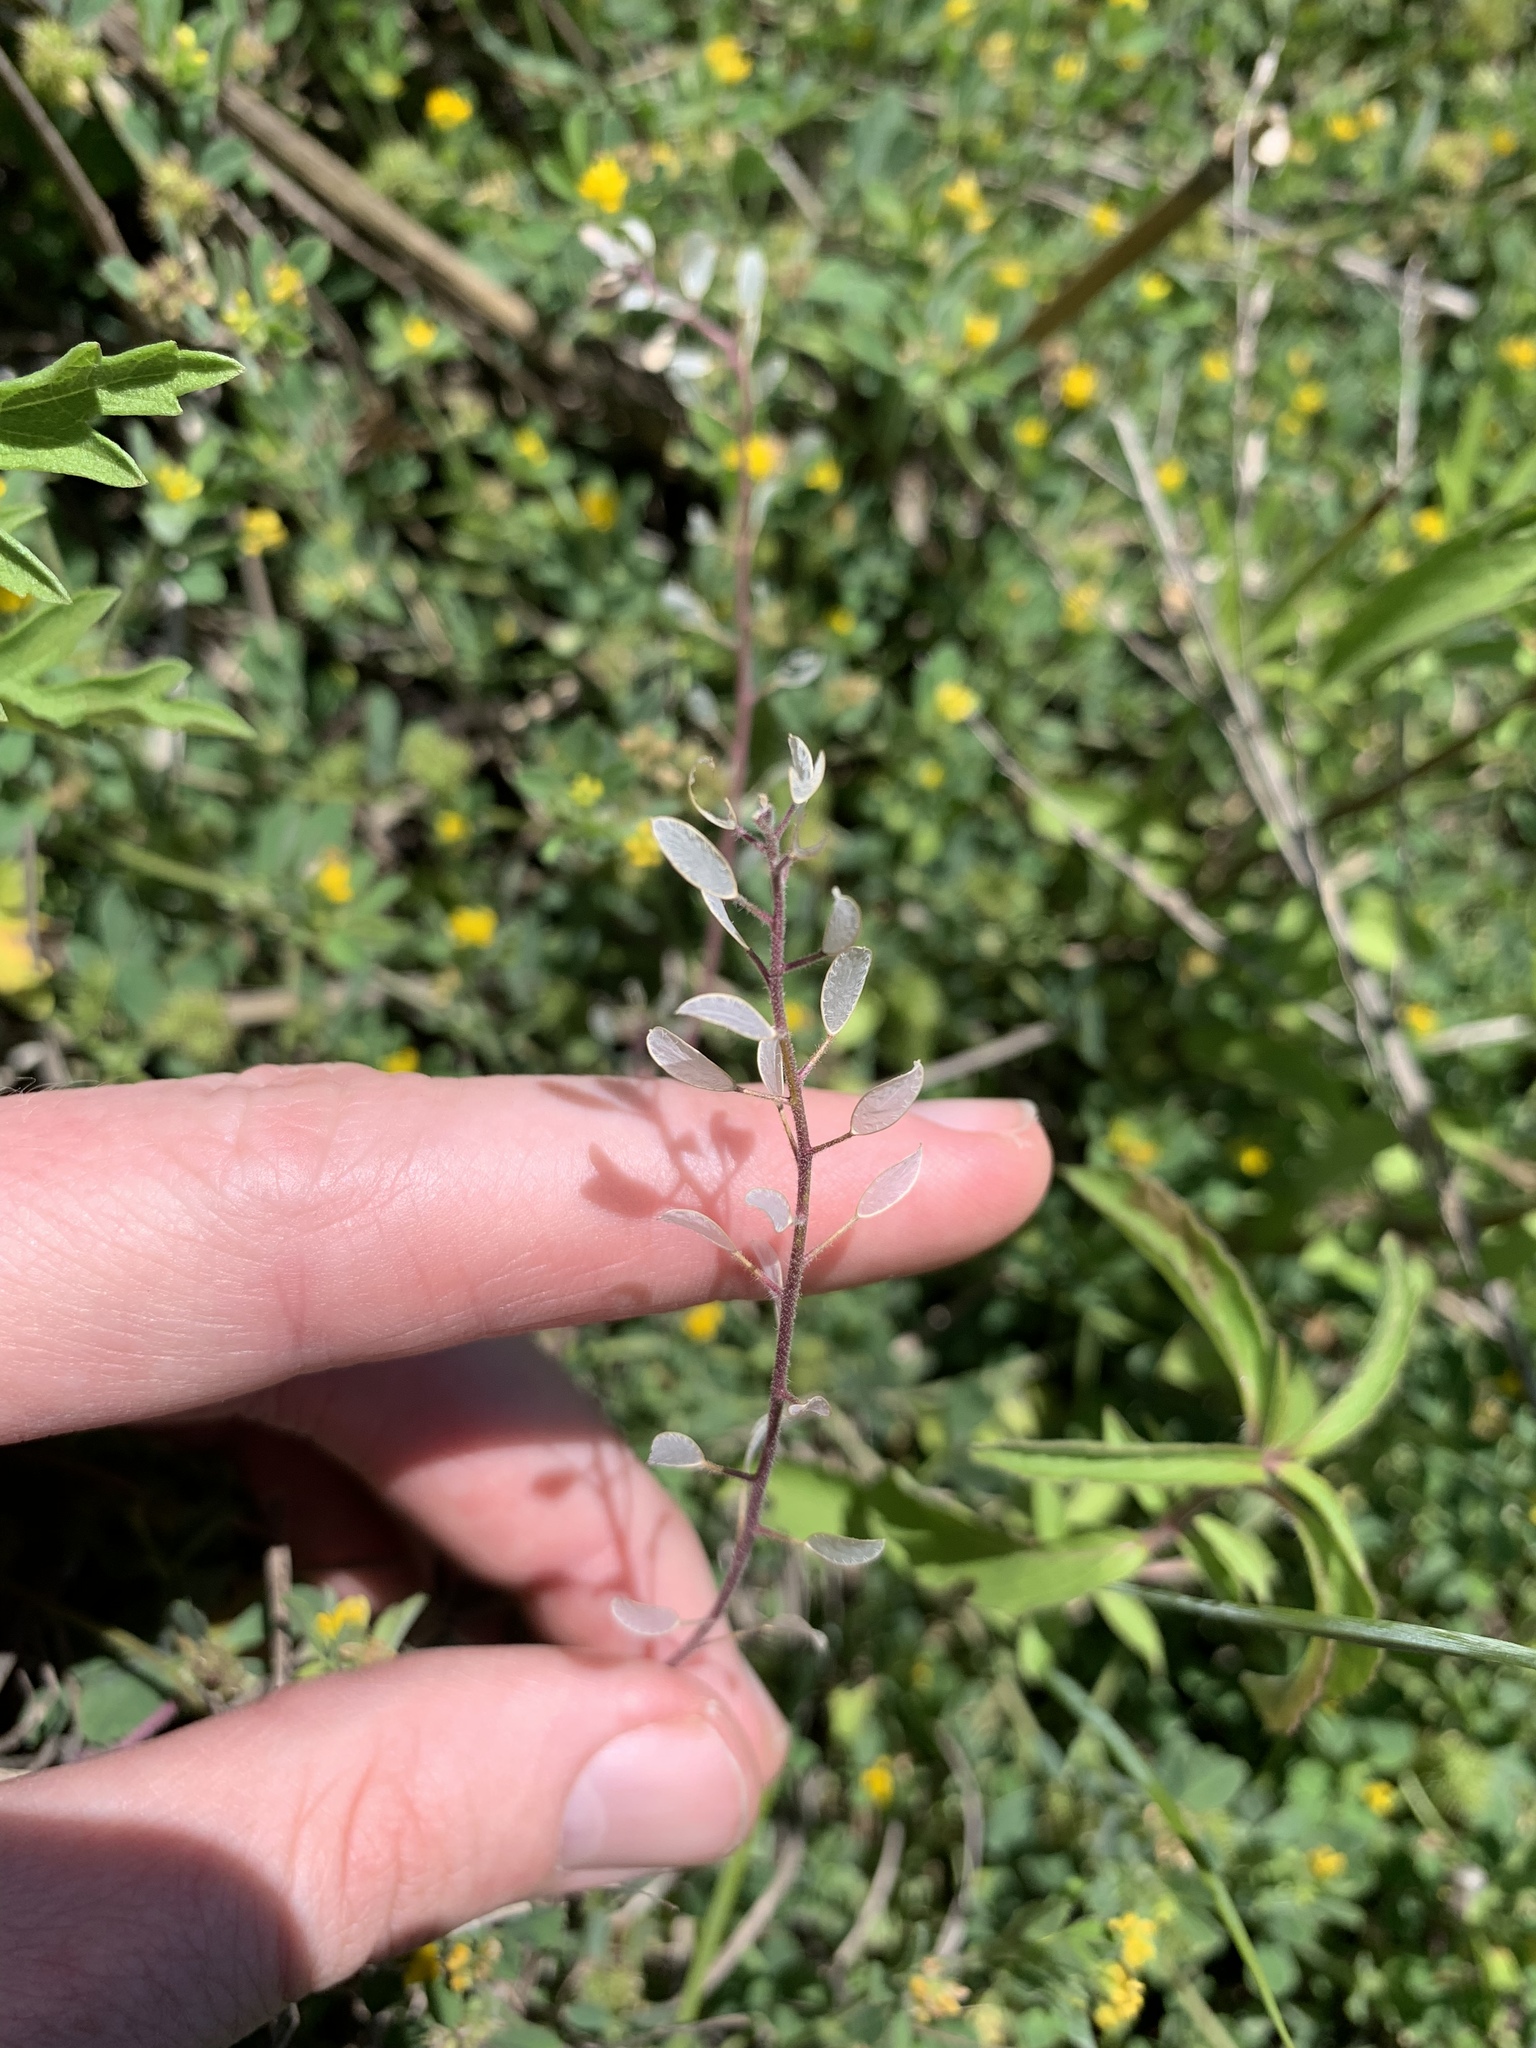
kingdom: Plantae
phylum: Tracheophyta
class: Magnoliopsida
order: Brassicales
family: Brassicaceae
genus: Tomostima
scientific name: Tomostima cuneifolia
